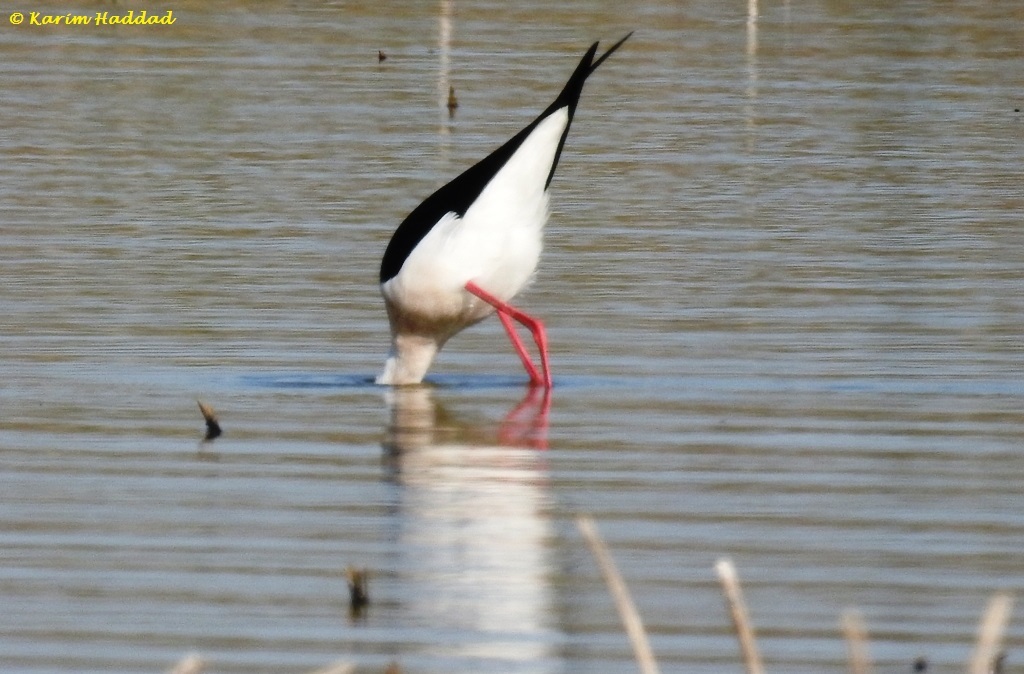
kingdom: Animalia
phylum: Chordata
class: Aves
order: Charadriiformes
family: Recurvirostridae
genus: Himantopus
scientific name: Himantopus himantopus
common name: Black-winged stilt
